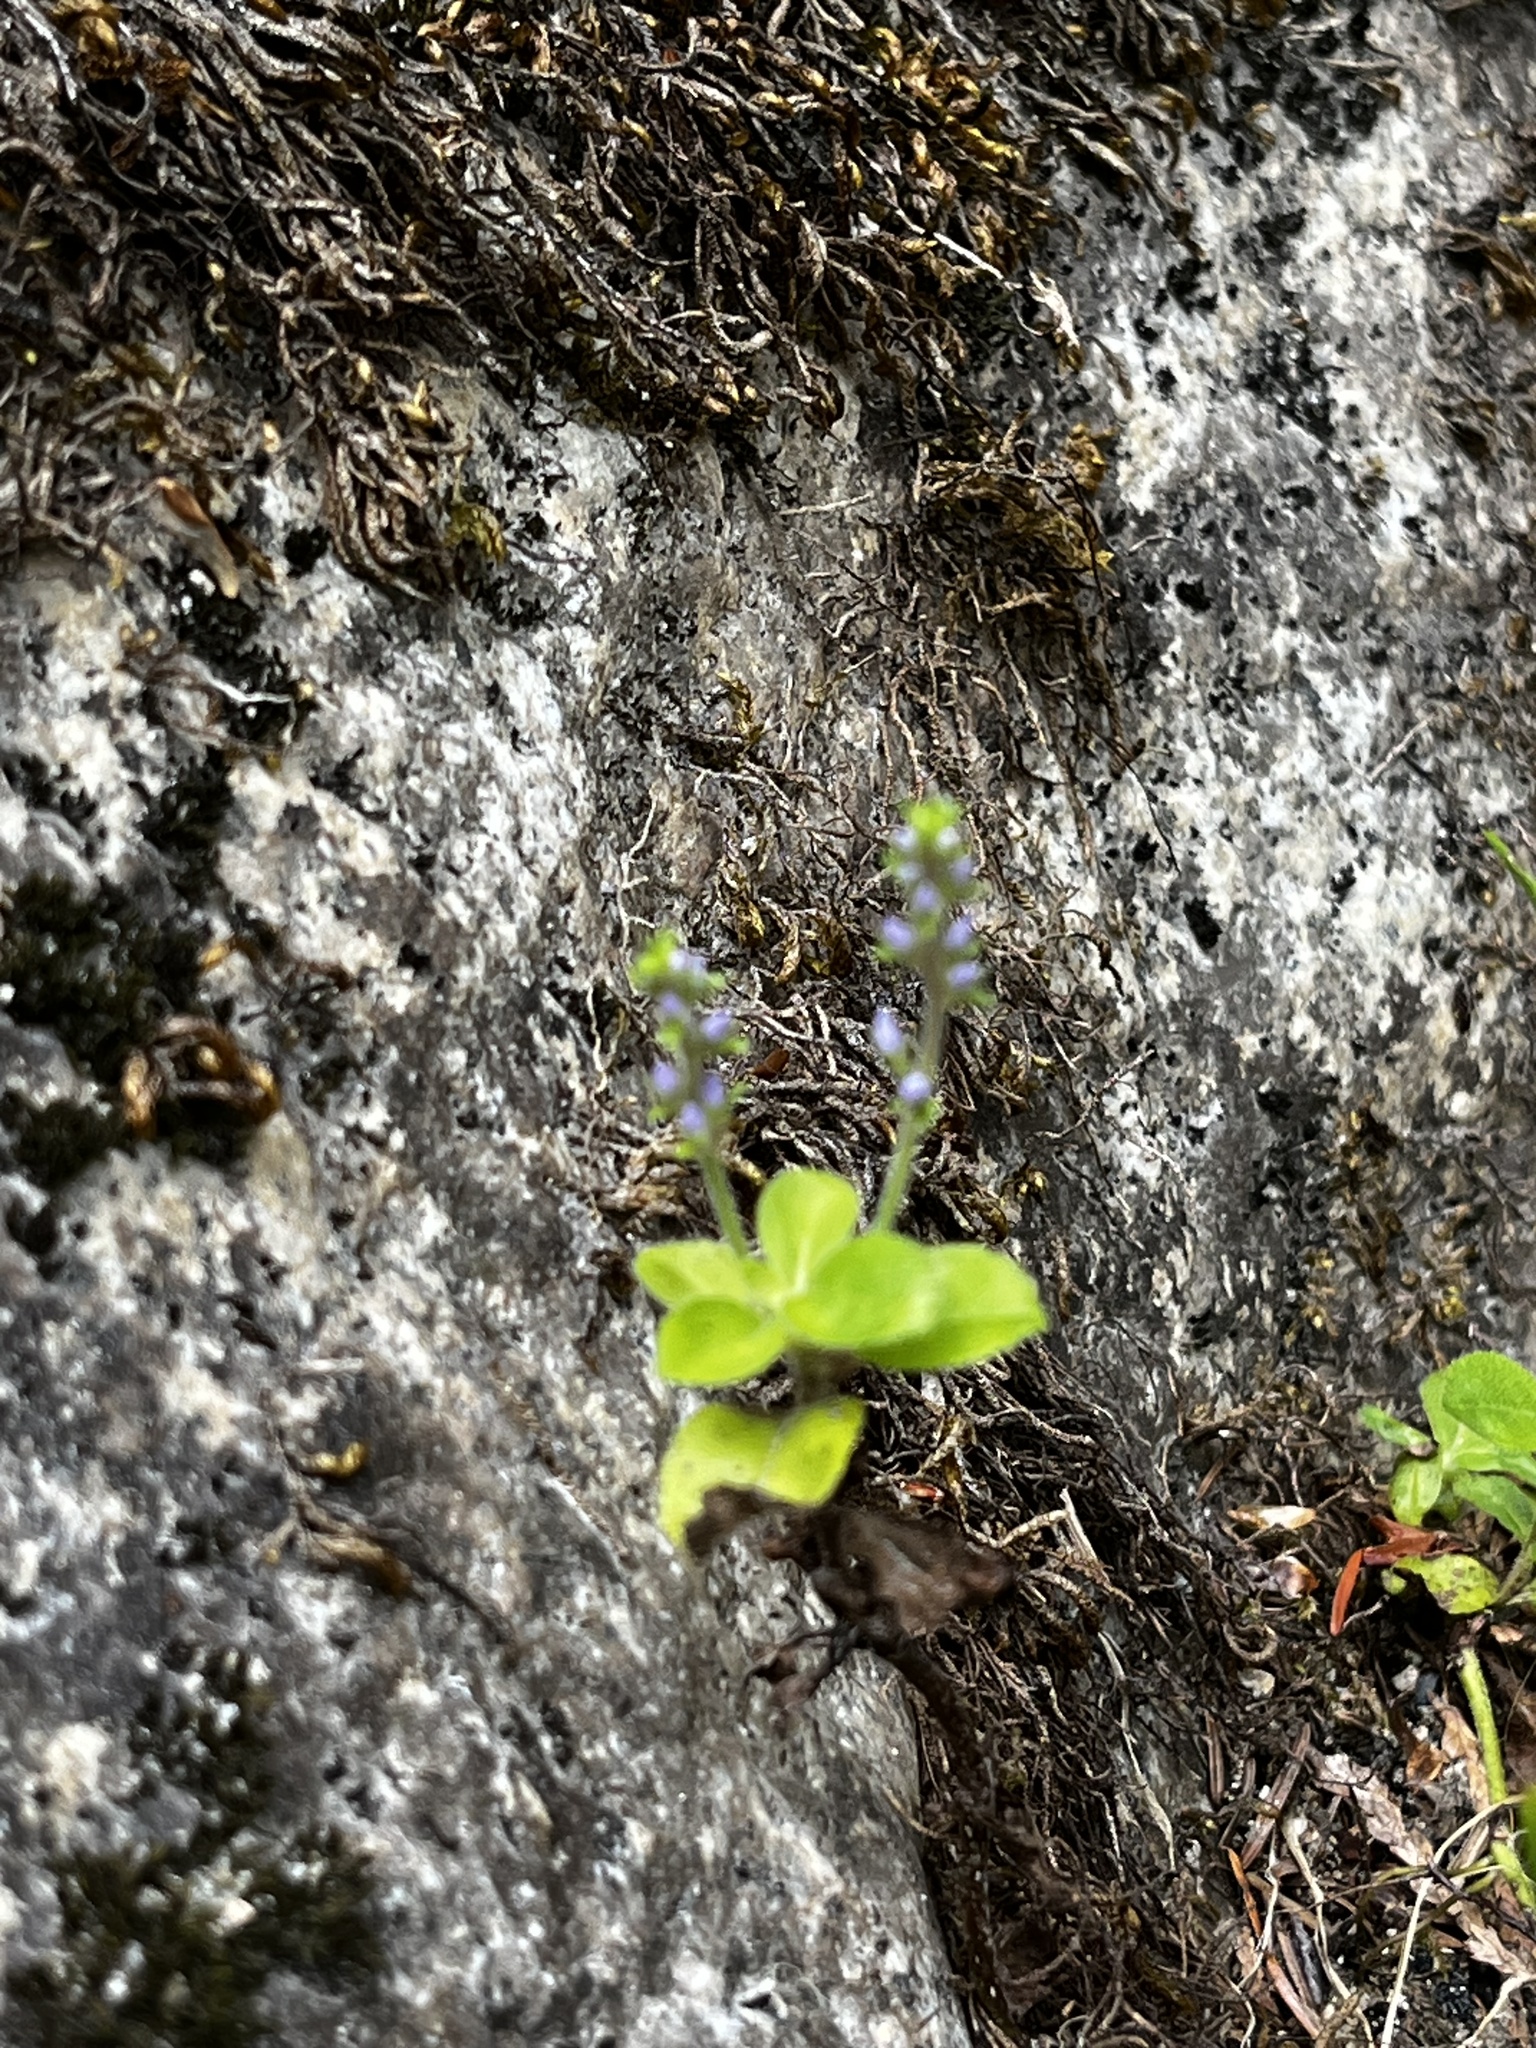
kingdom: Plantae
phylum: Tracheophyta
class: Magnoliopsida
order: Lamiales
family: Plantaginaceae
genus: Veronica
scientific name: Veronica officinalis
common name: Common speedwell
